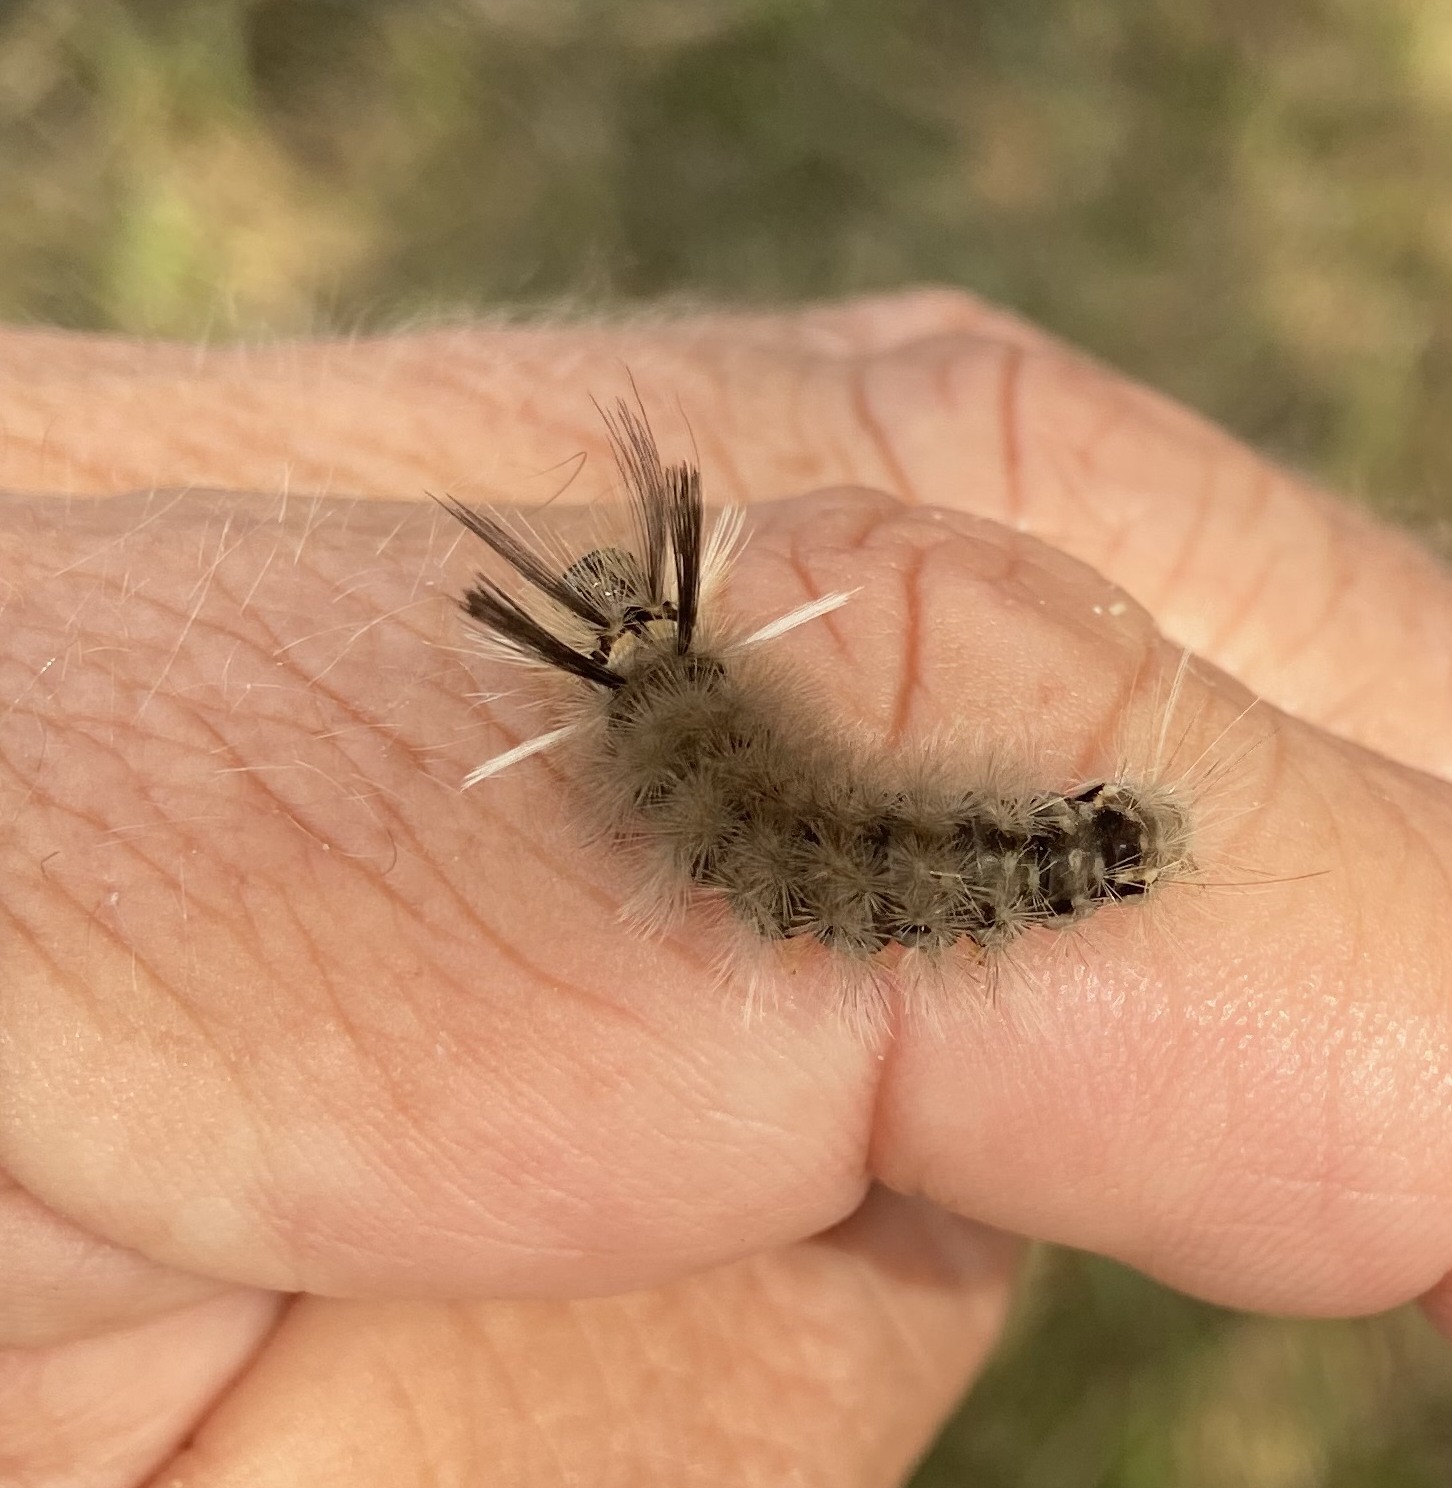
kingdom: Animalia
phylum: Arthropoda
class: Insecta
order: Lepidoptera
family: Erebidae
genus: Halysidota
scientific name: Halysidota tessellaris
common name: Banded tussock moth
